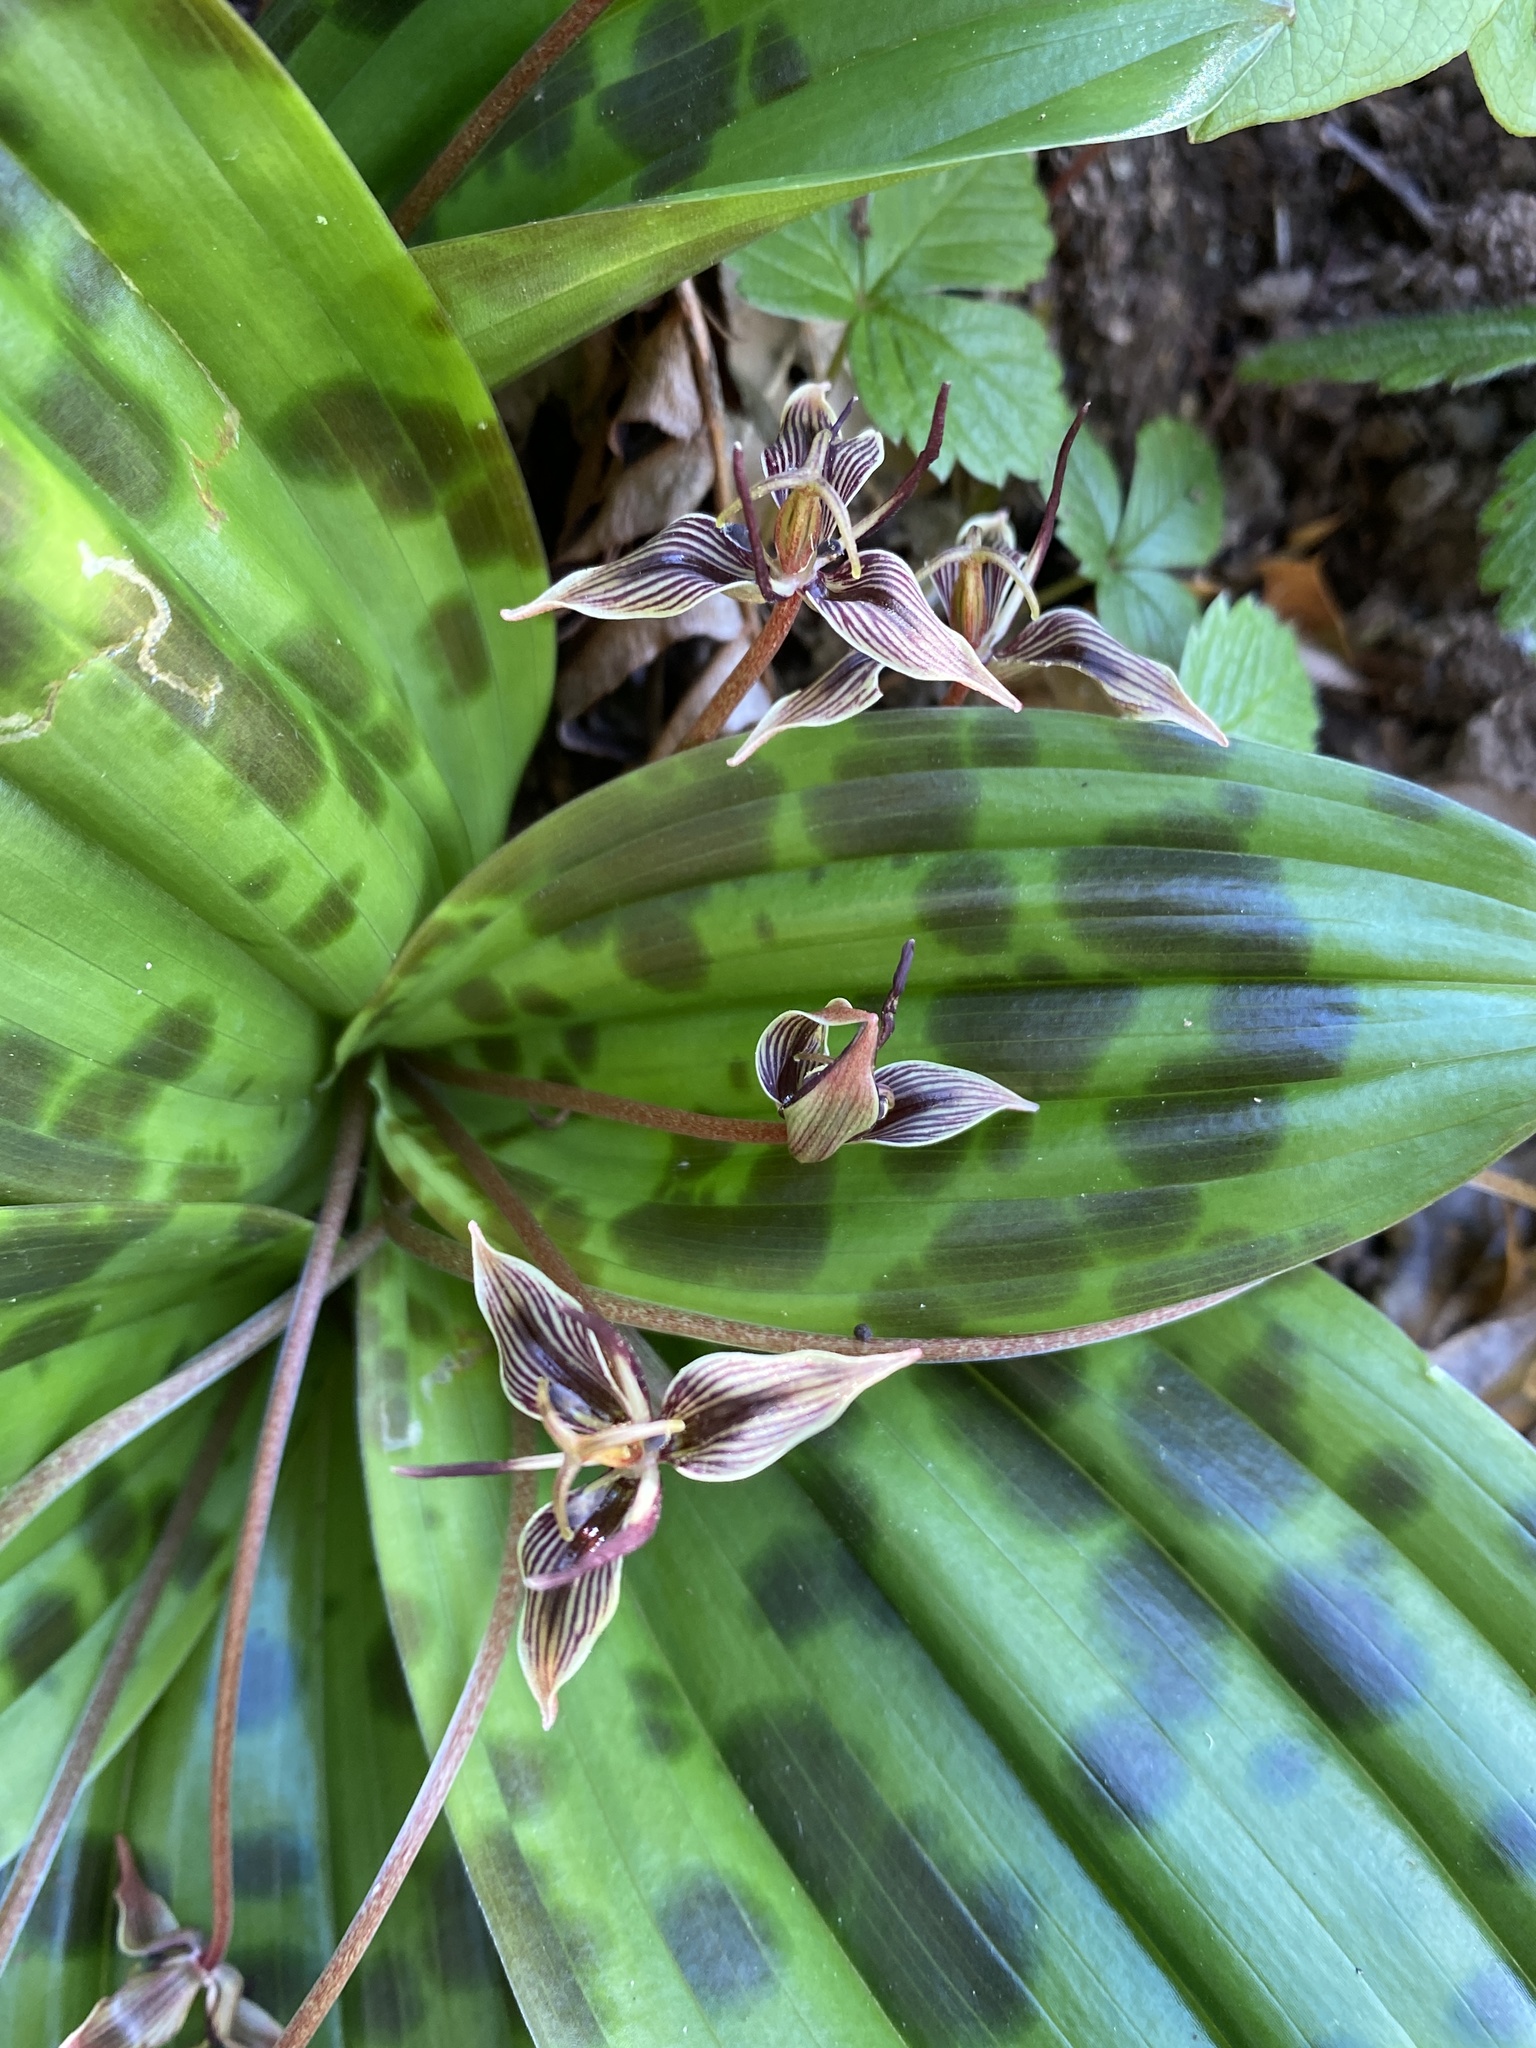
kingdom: Plantae
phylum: Tracheophyta
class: Liliopsida
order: Liliales
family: Liliaceae
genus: Scoliopus
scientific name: Scoliopus bigelovii
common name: Foetid adder's-tongue
